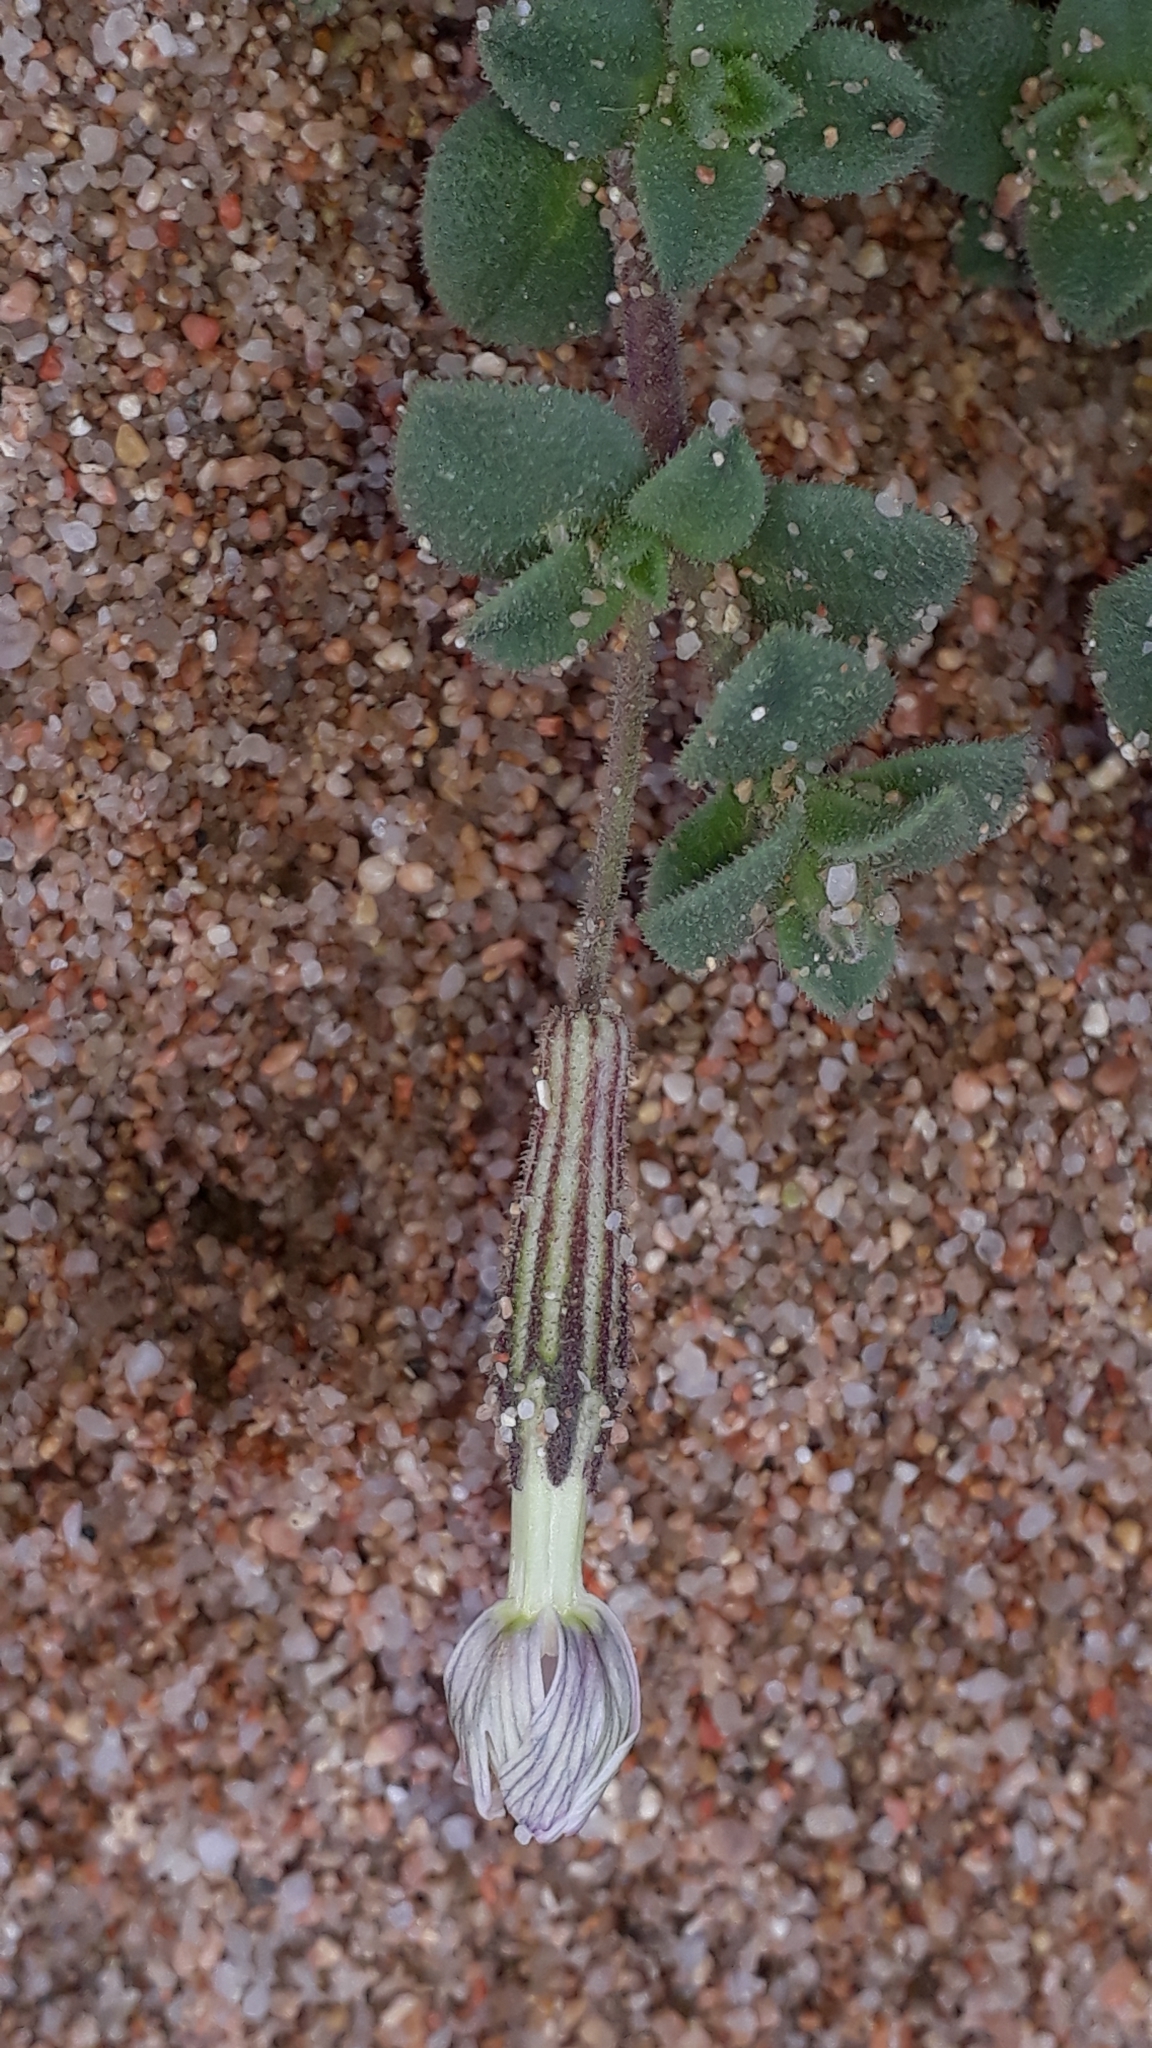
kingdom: Plantae
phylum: Tracheophyta
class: Magnoliopsida
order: Caryophyllales
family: Caryophyllaceae
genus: Silene
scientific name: Silene succulenta
